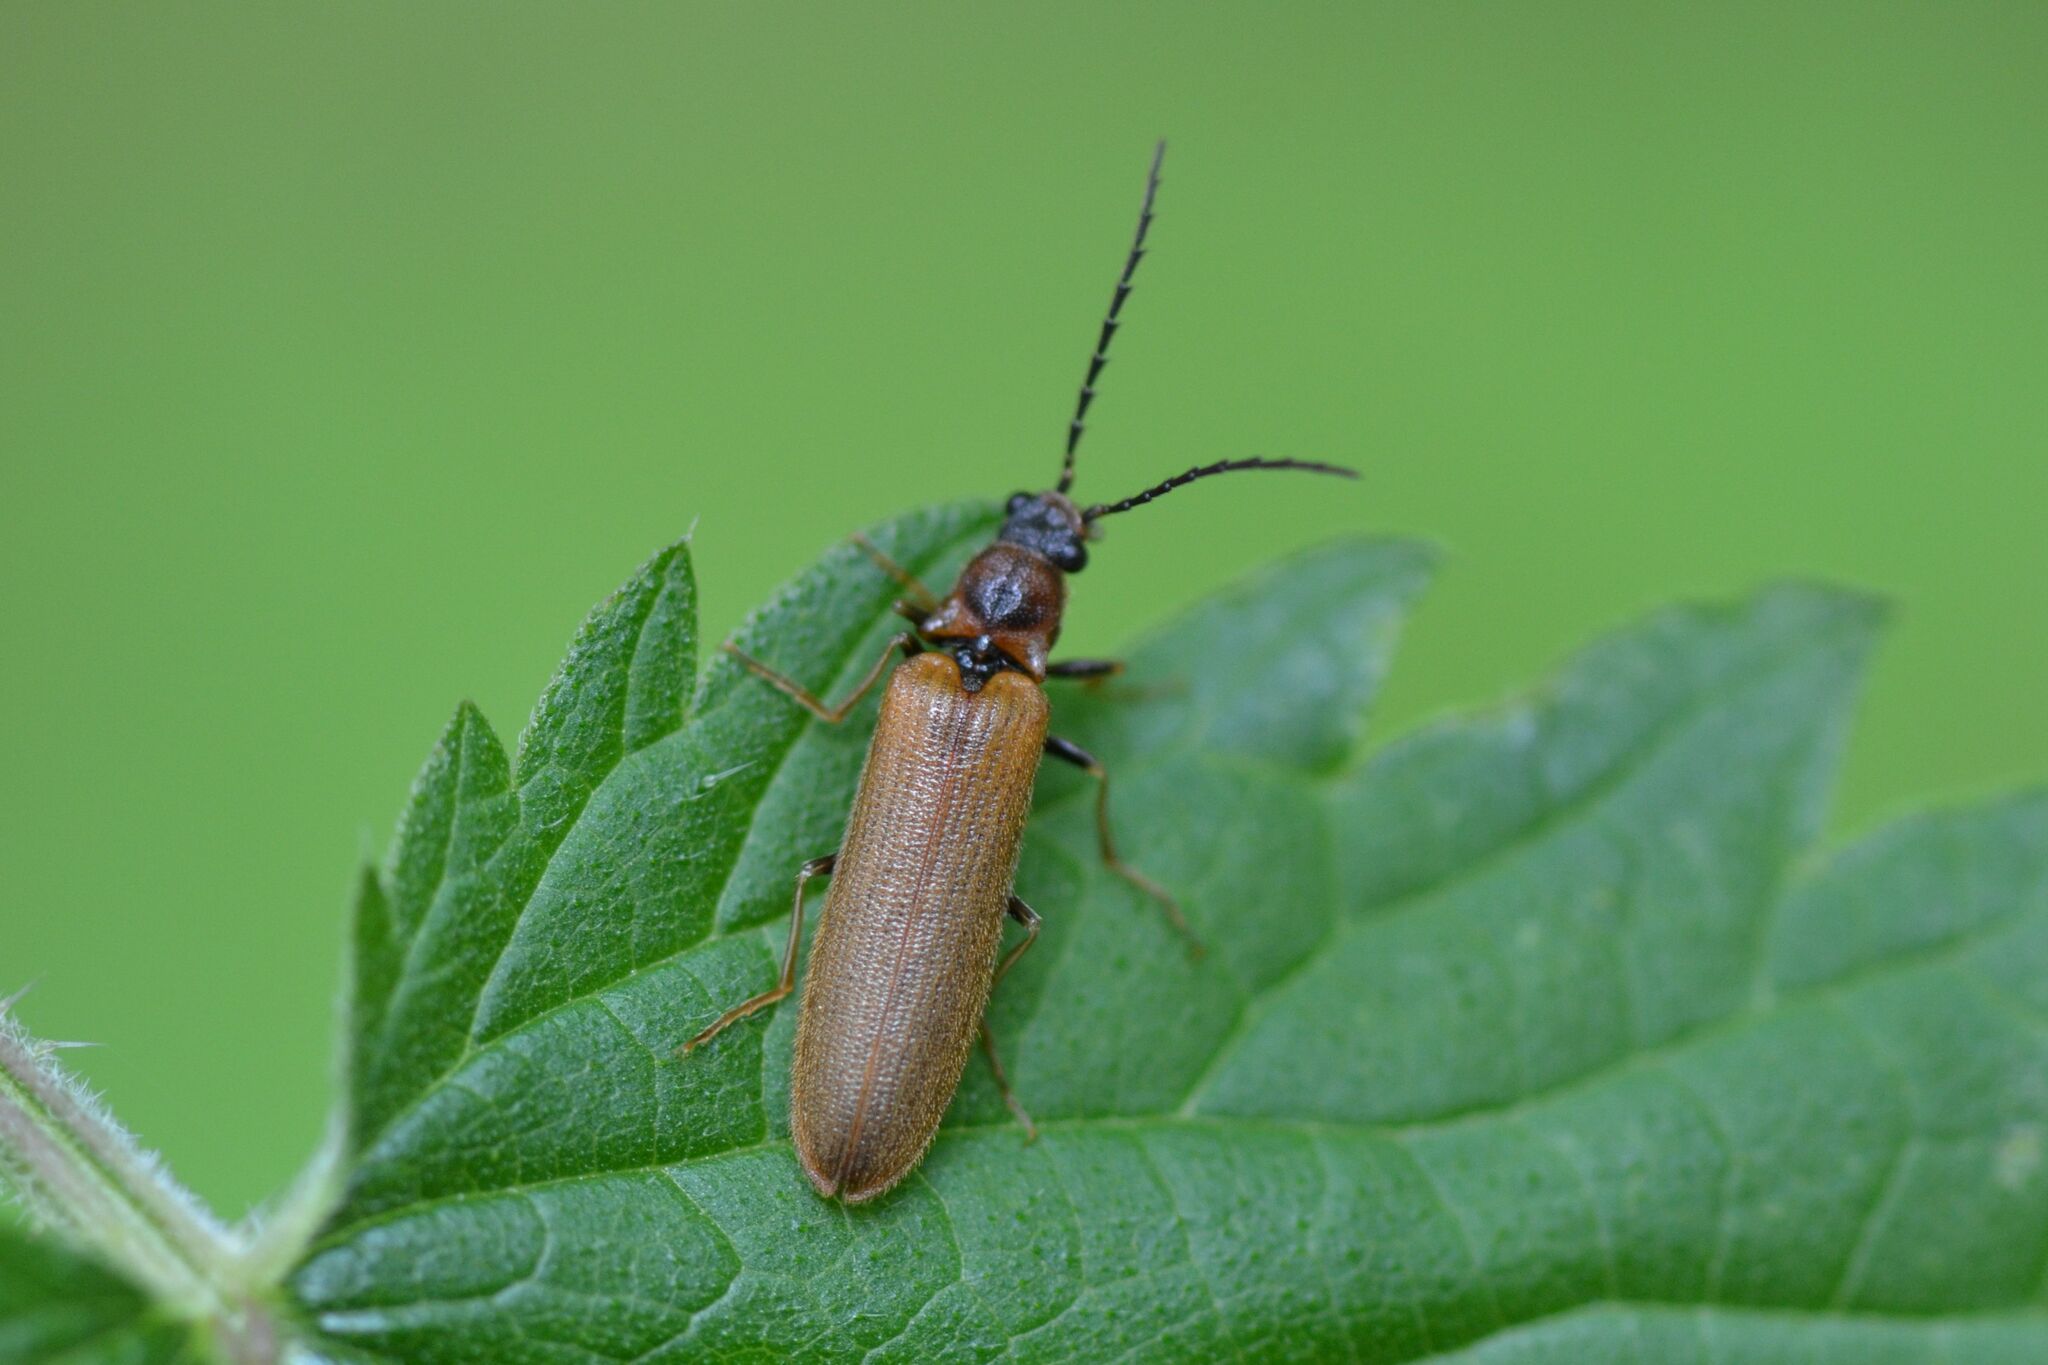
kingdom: Animalia
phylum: Arthropoda
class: Insecta
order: Coleoptera
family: Elateridae
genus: Denticollis
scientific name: Denticollis linearis
